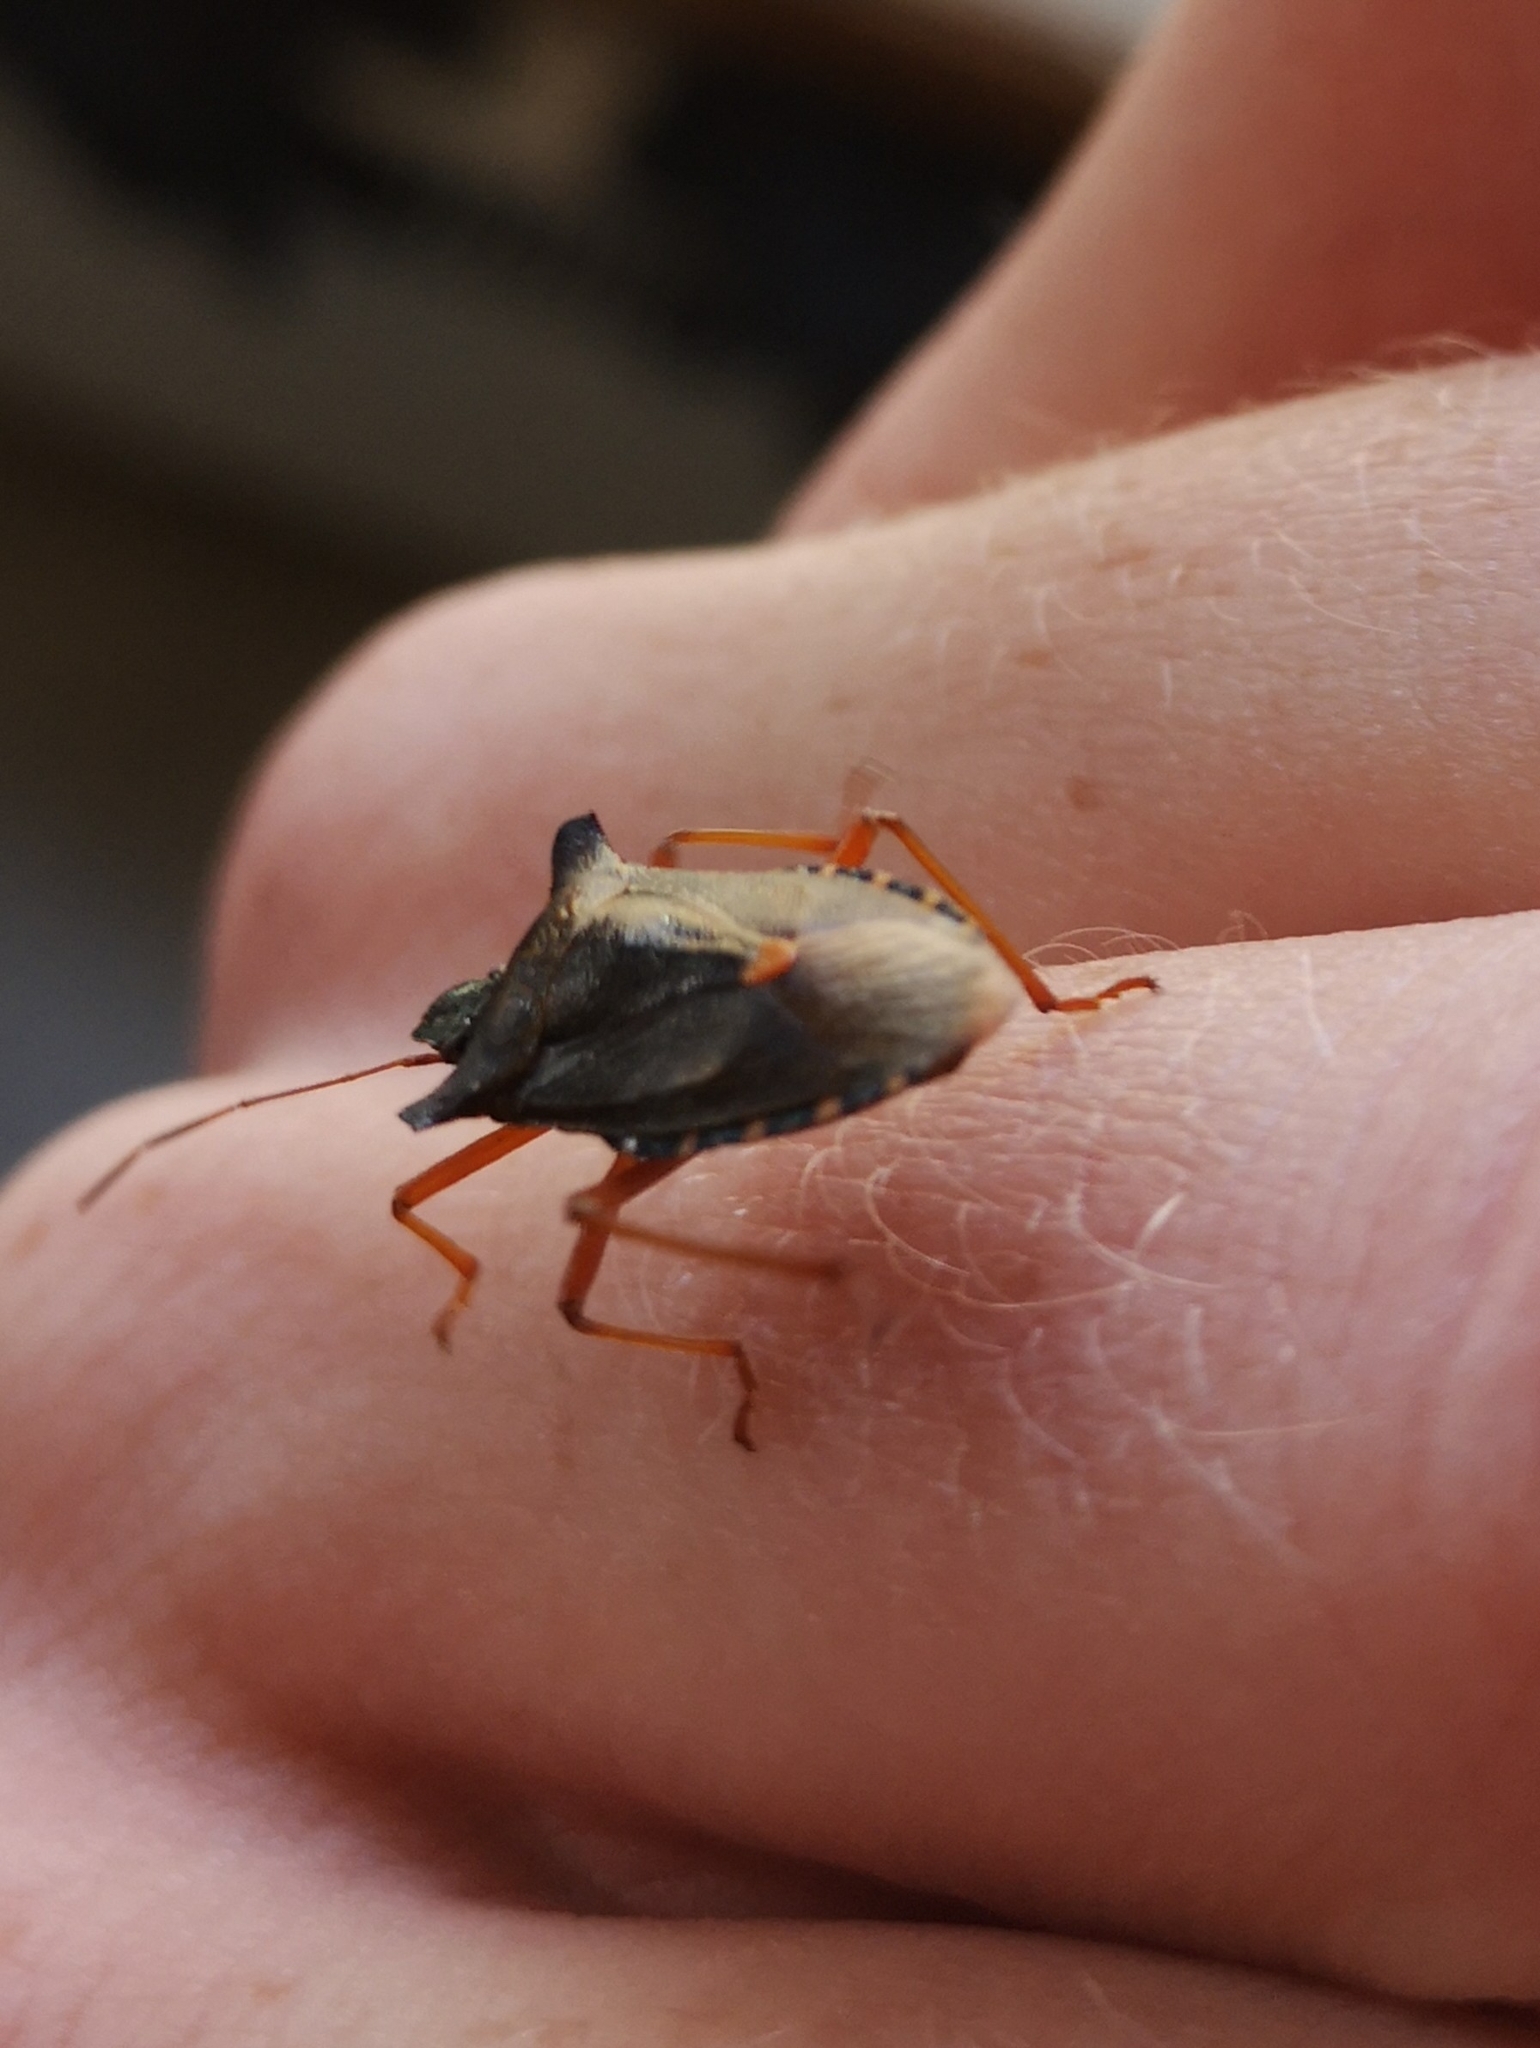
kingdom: Animalia
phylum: Arthropoda
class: Insecta
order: Hemiptera
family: Pentatomidae
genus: Pentatoma
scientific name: Pentatoma rufipes
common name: Forest bug
